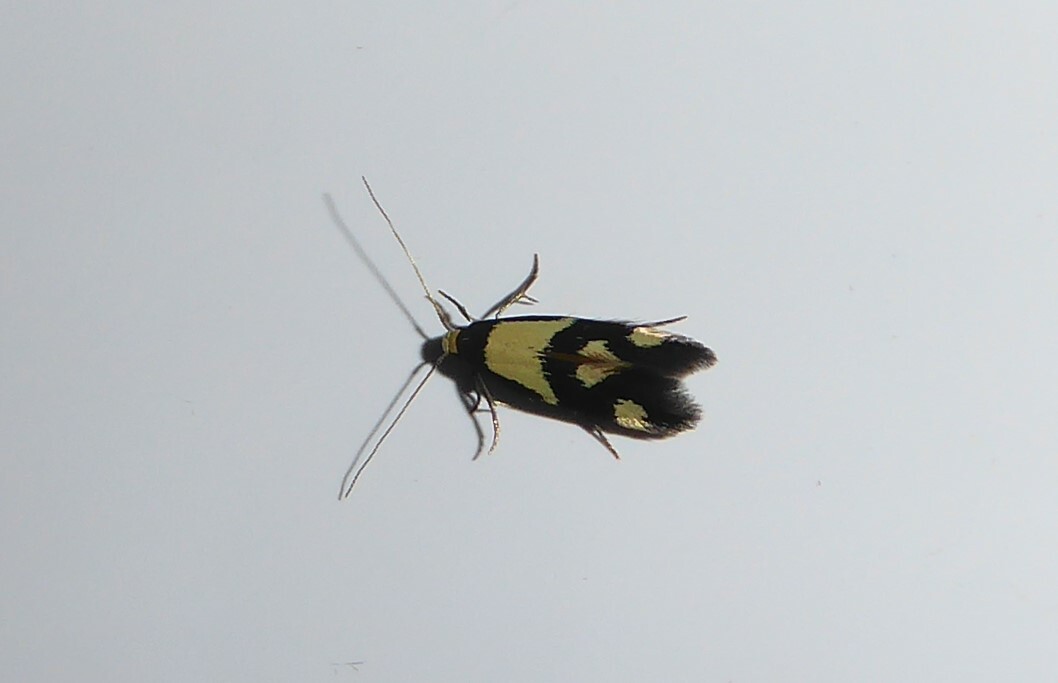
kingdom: Animalia
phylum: Arthropoda
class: Insecta
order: Lepidoptera
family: Tineidae
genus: Opogona
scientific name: Opogona comptella
